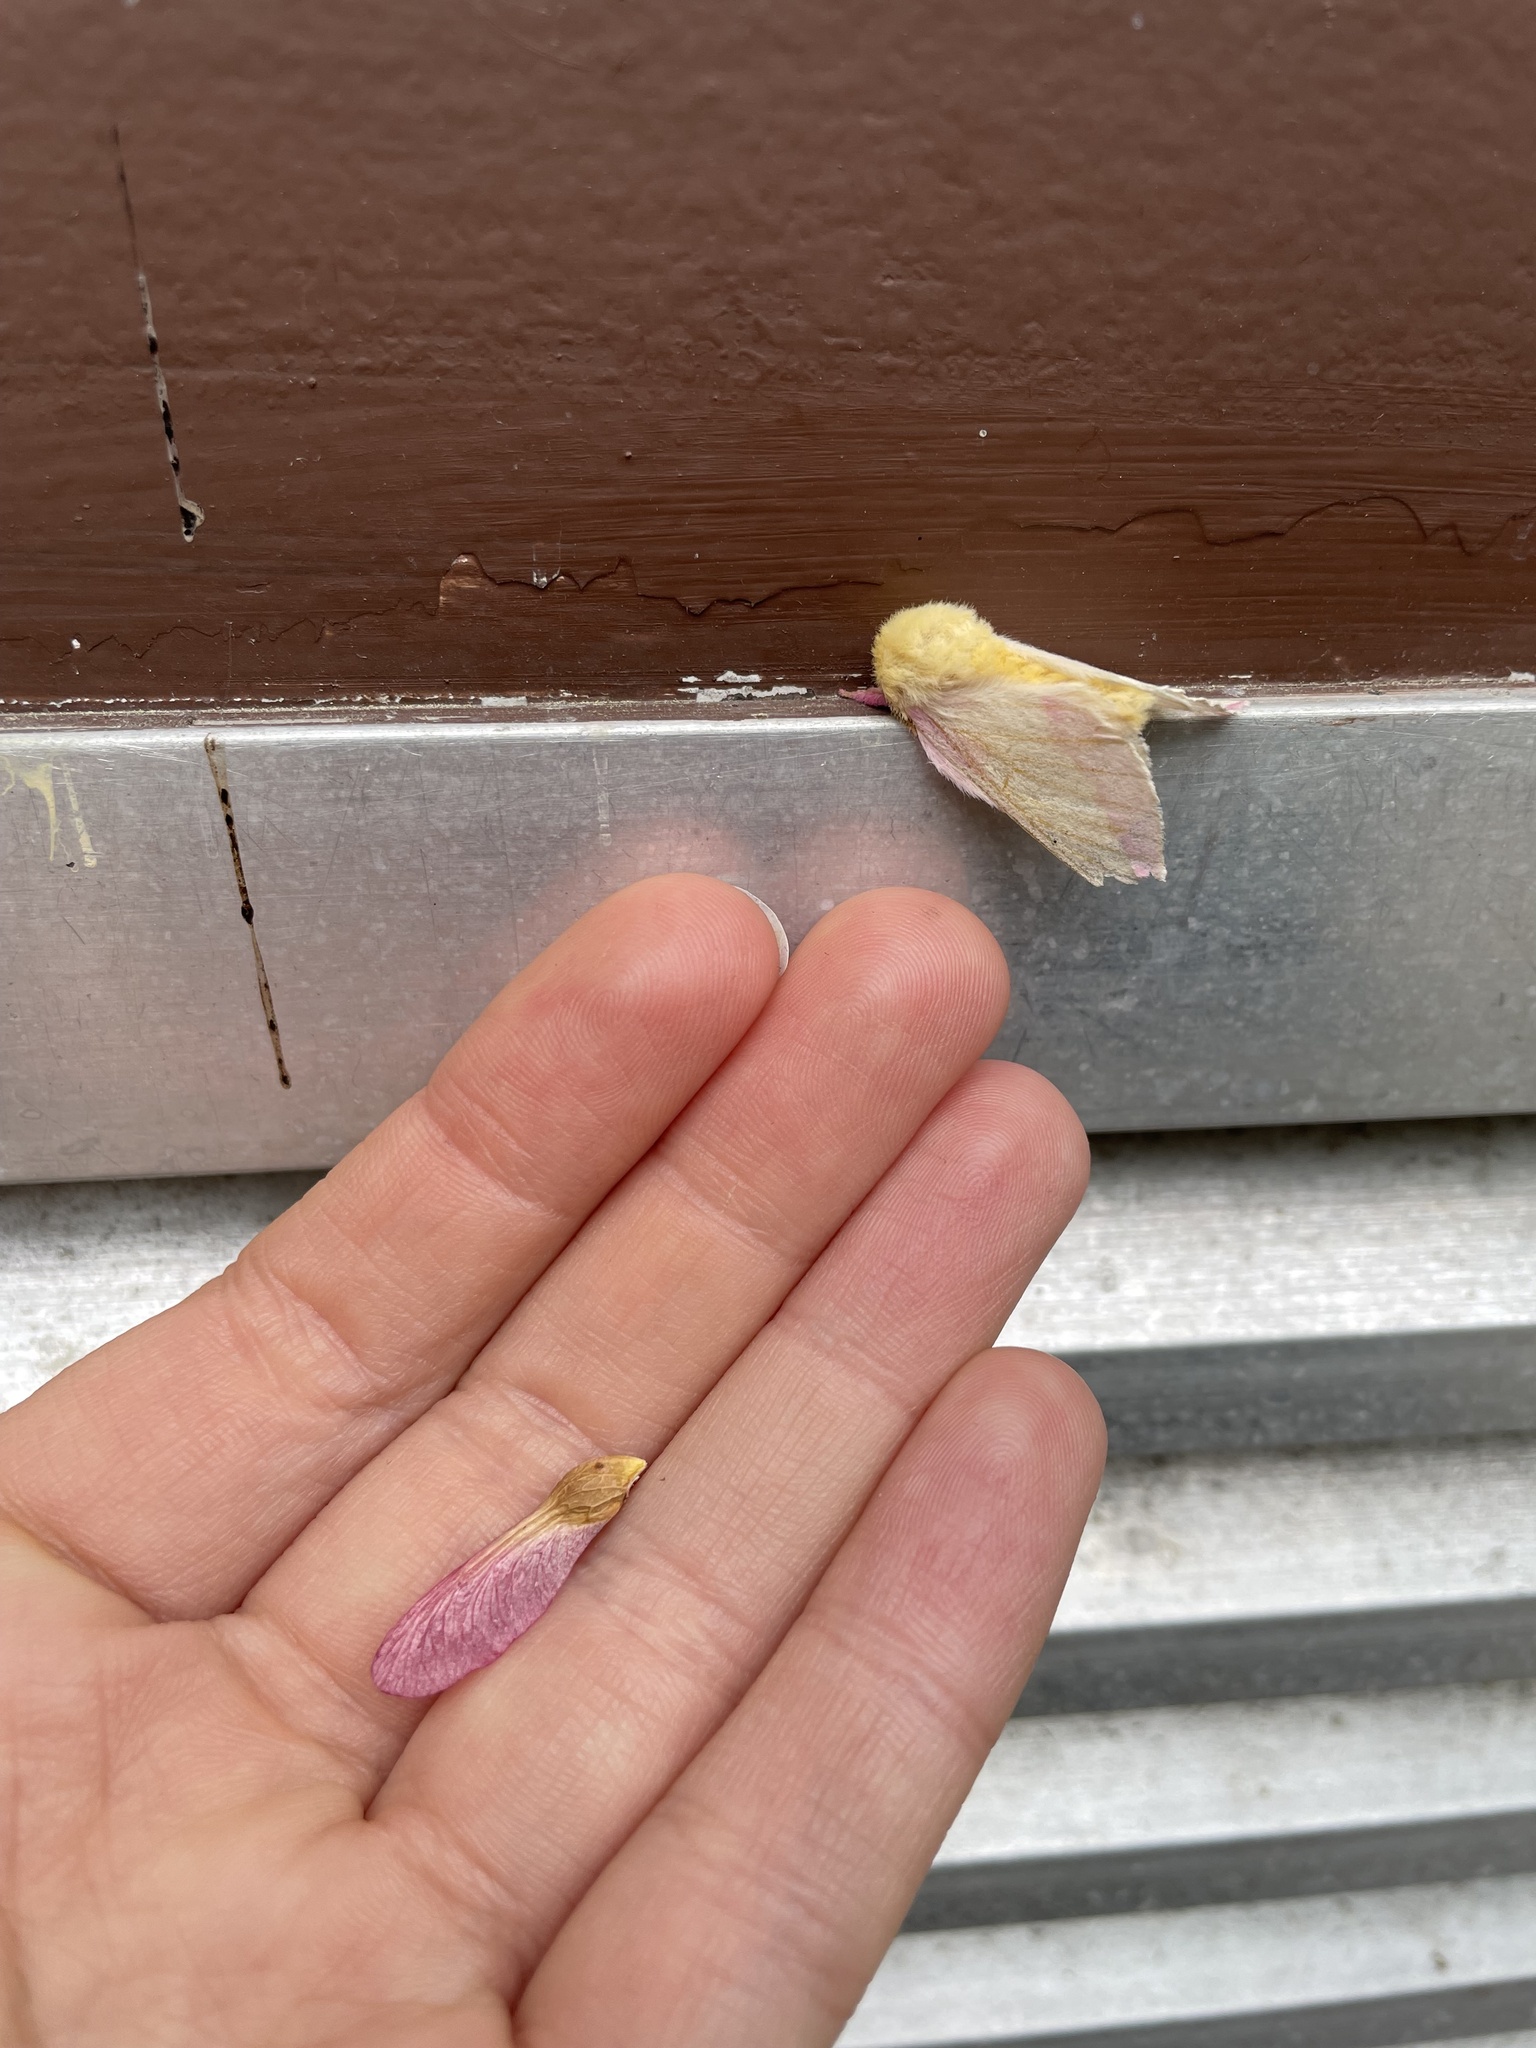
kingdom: Animalia
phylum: Arthropoda
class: Insecta
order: Lepidoptera
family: Saturniidae
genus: Dryocampa
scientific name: Dryocampa rubicunda
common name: Rosy maple moth
